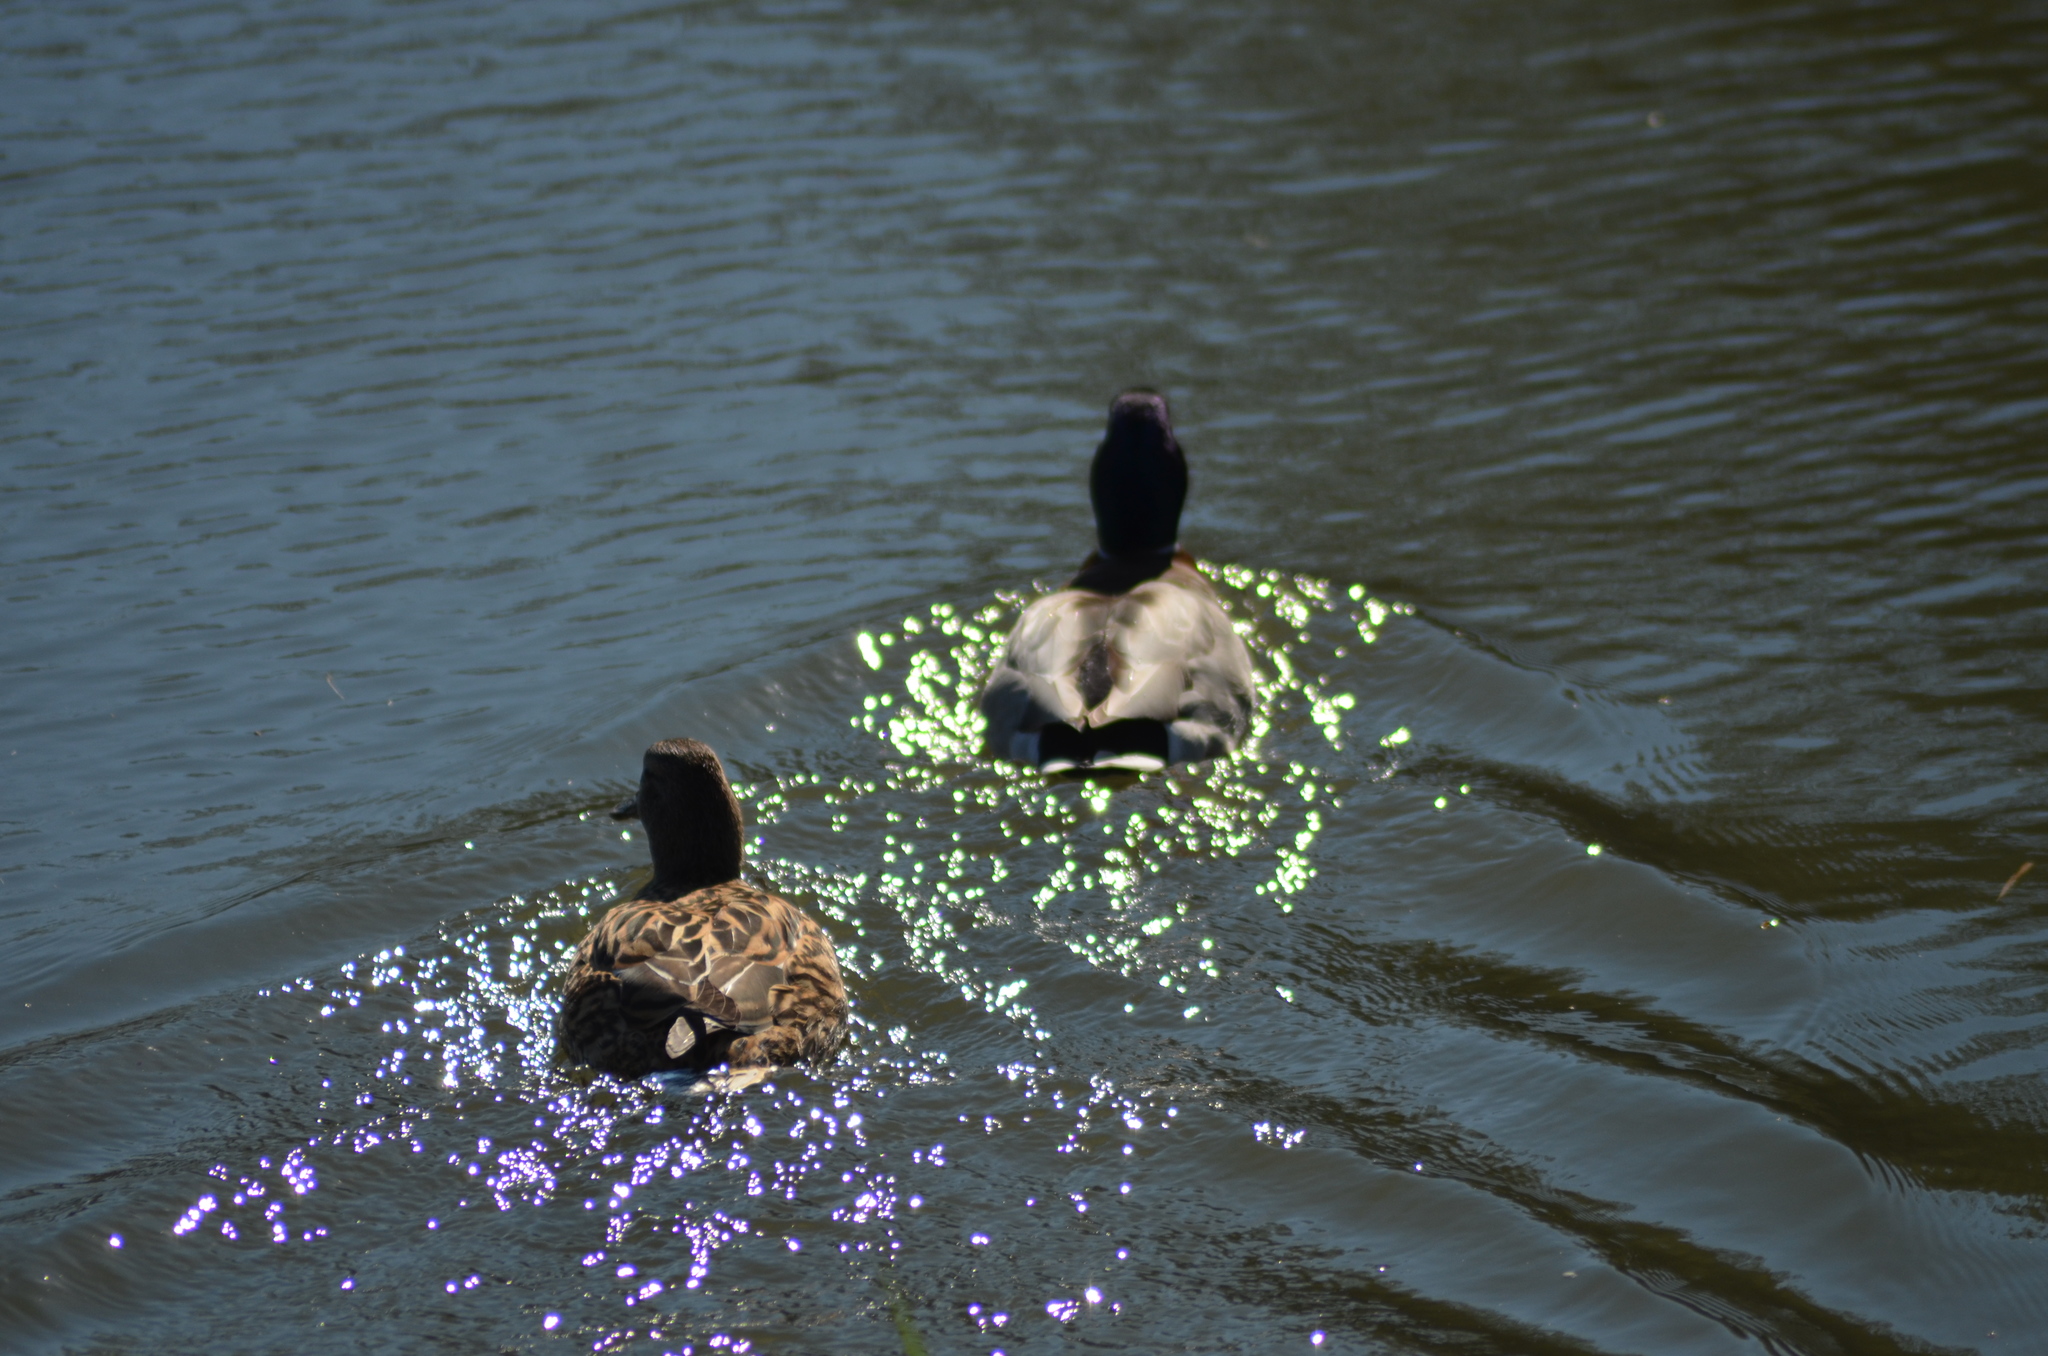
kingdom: Animalia
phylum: Chordata
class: Aves
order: Anseriformes
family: Anatidae
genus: Anas
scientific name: Anas platyrhynchos
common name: Mallard
